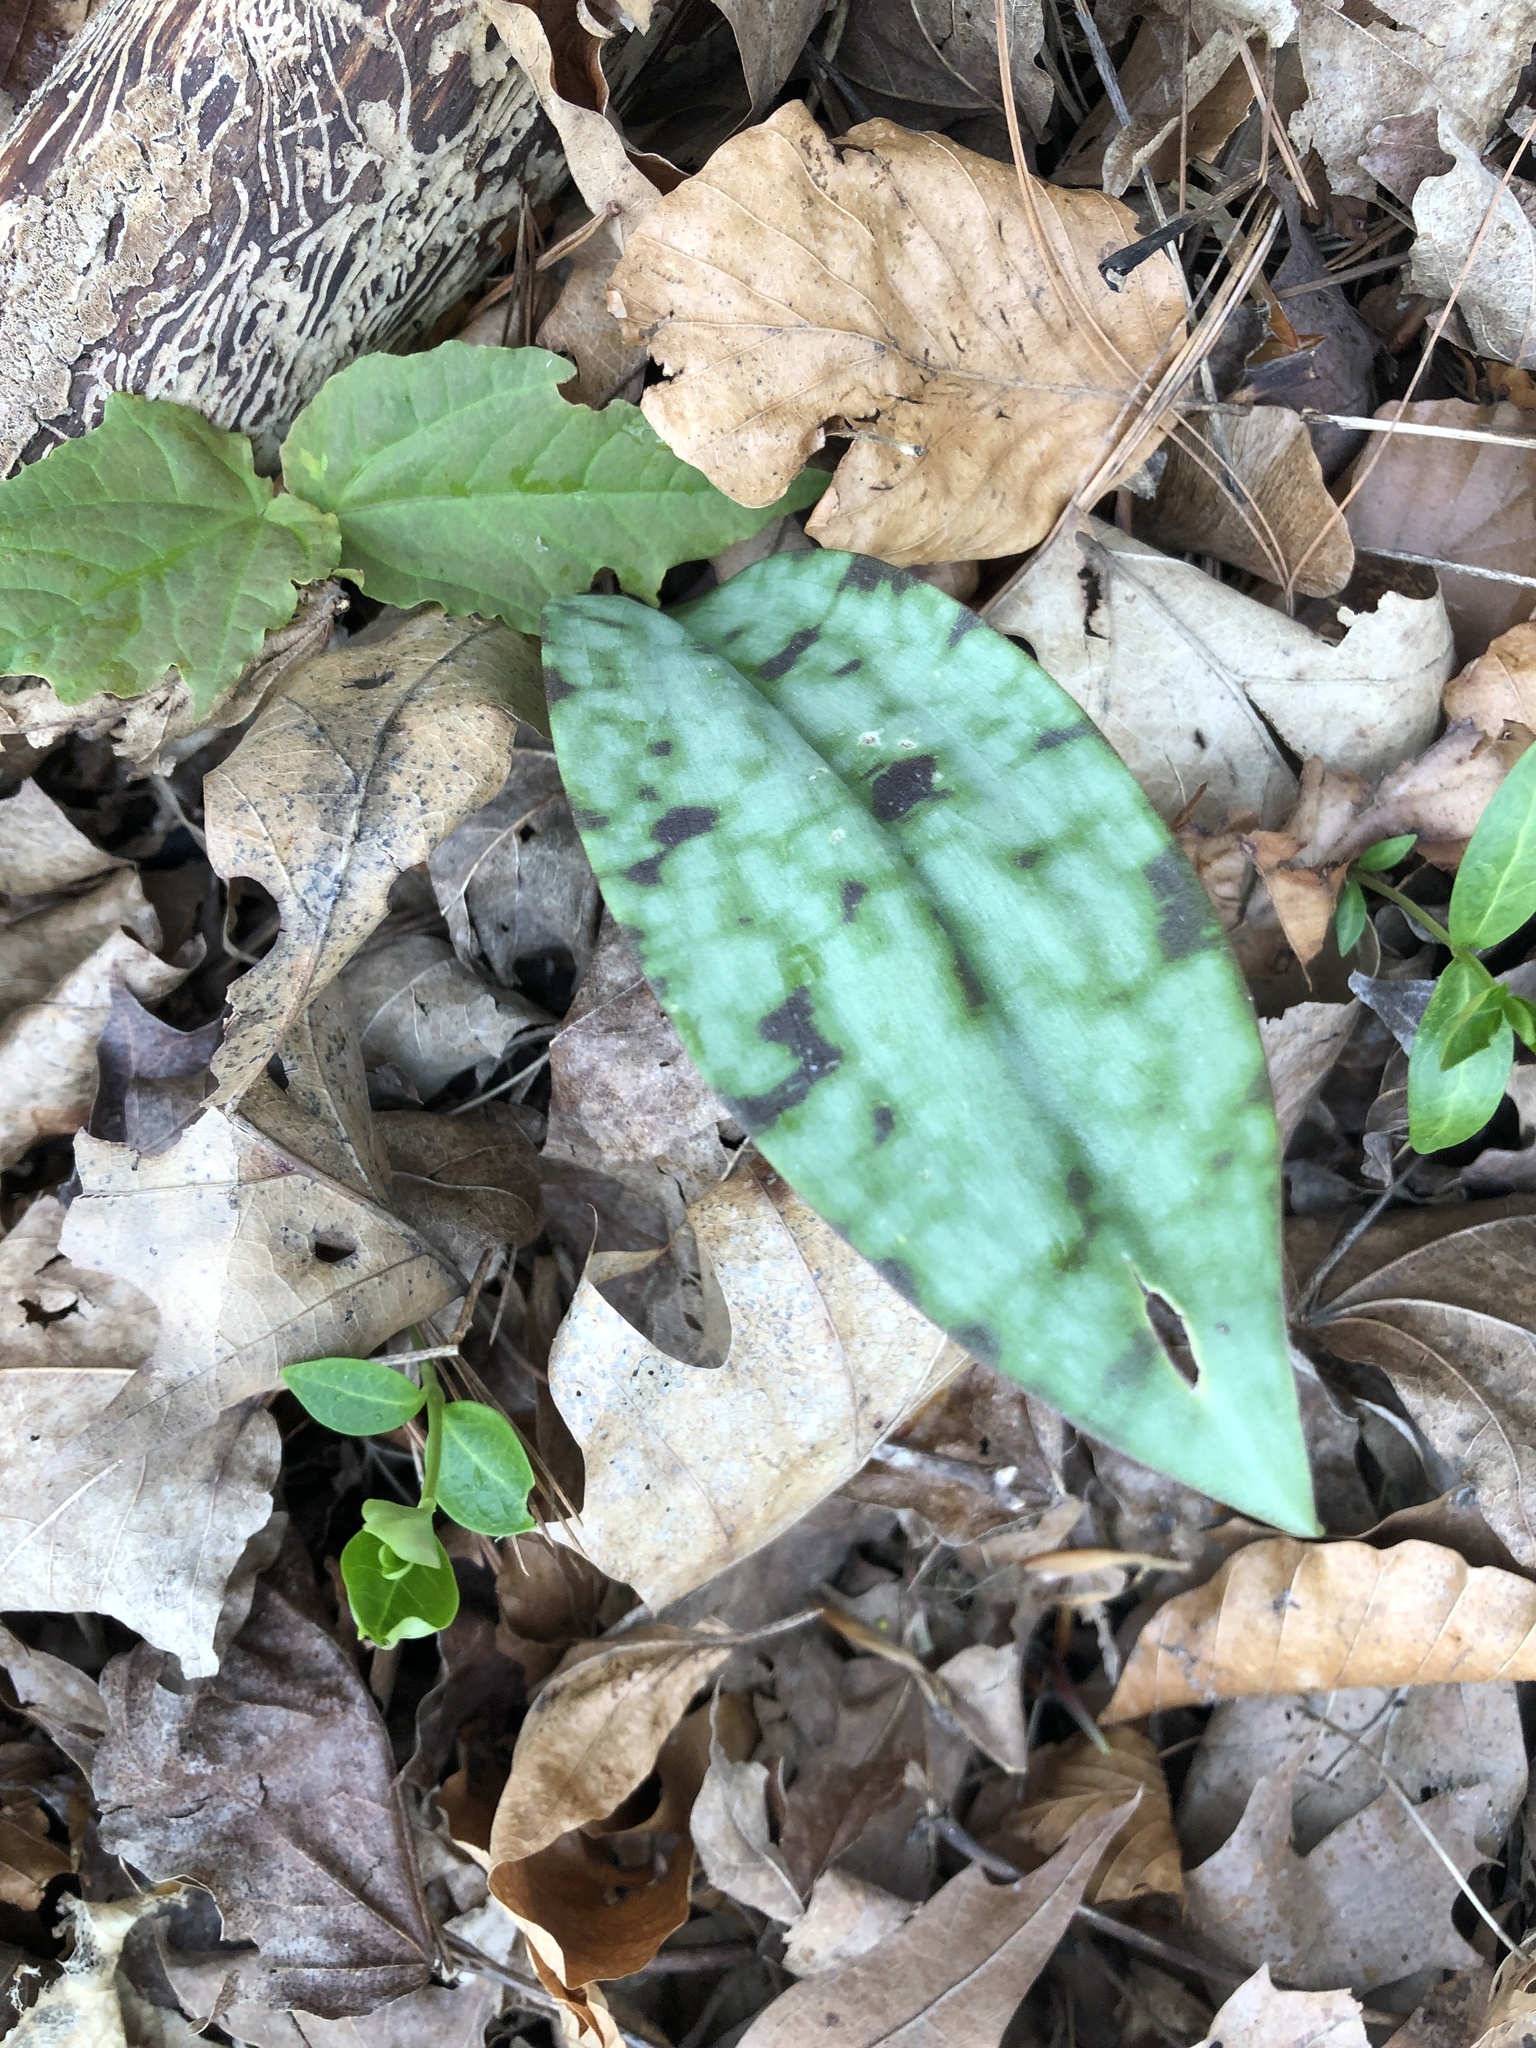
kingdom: Plantae
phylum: Tracheophyta
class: Liliopsida
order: Liliales
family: Liliaceae
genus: Erythronium
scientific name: Erythronium americanum
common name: Yellow adder's-tongue
